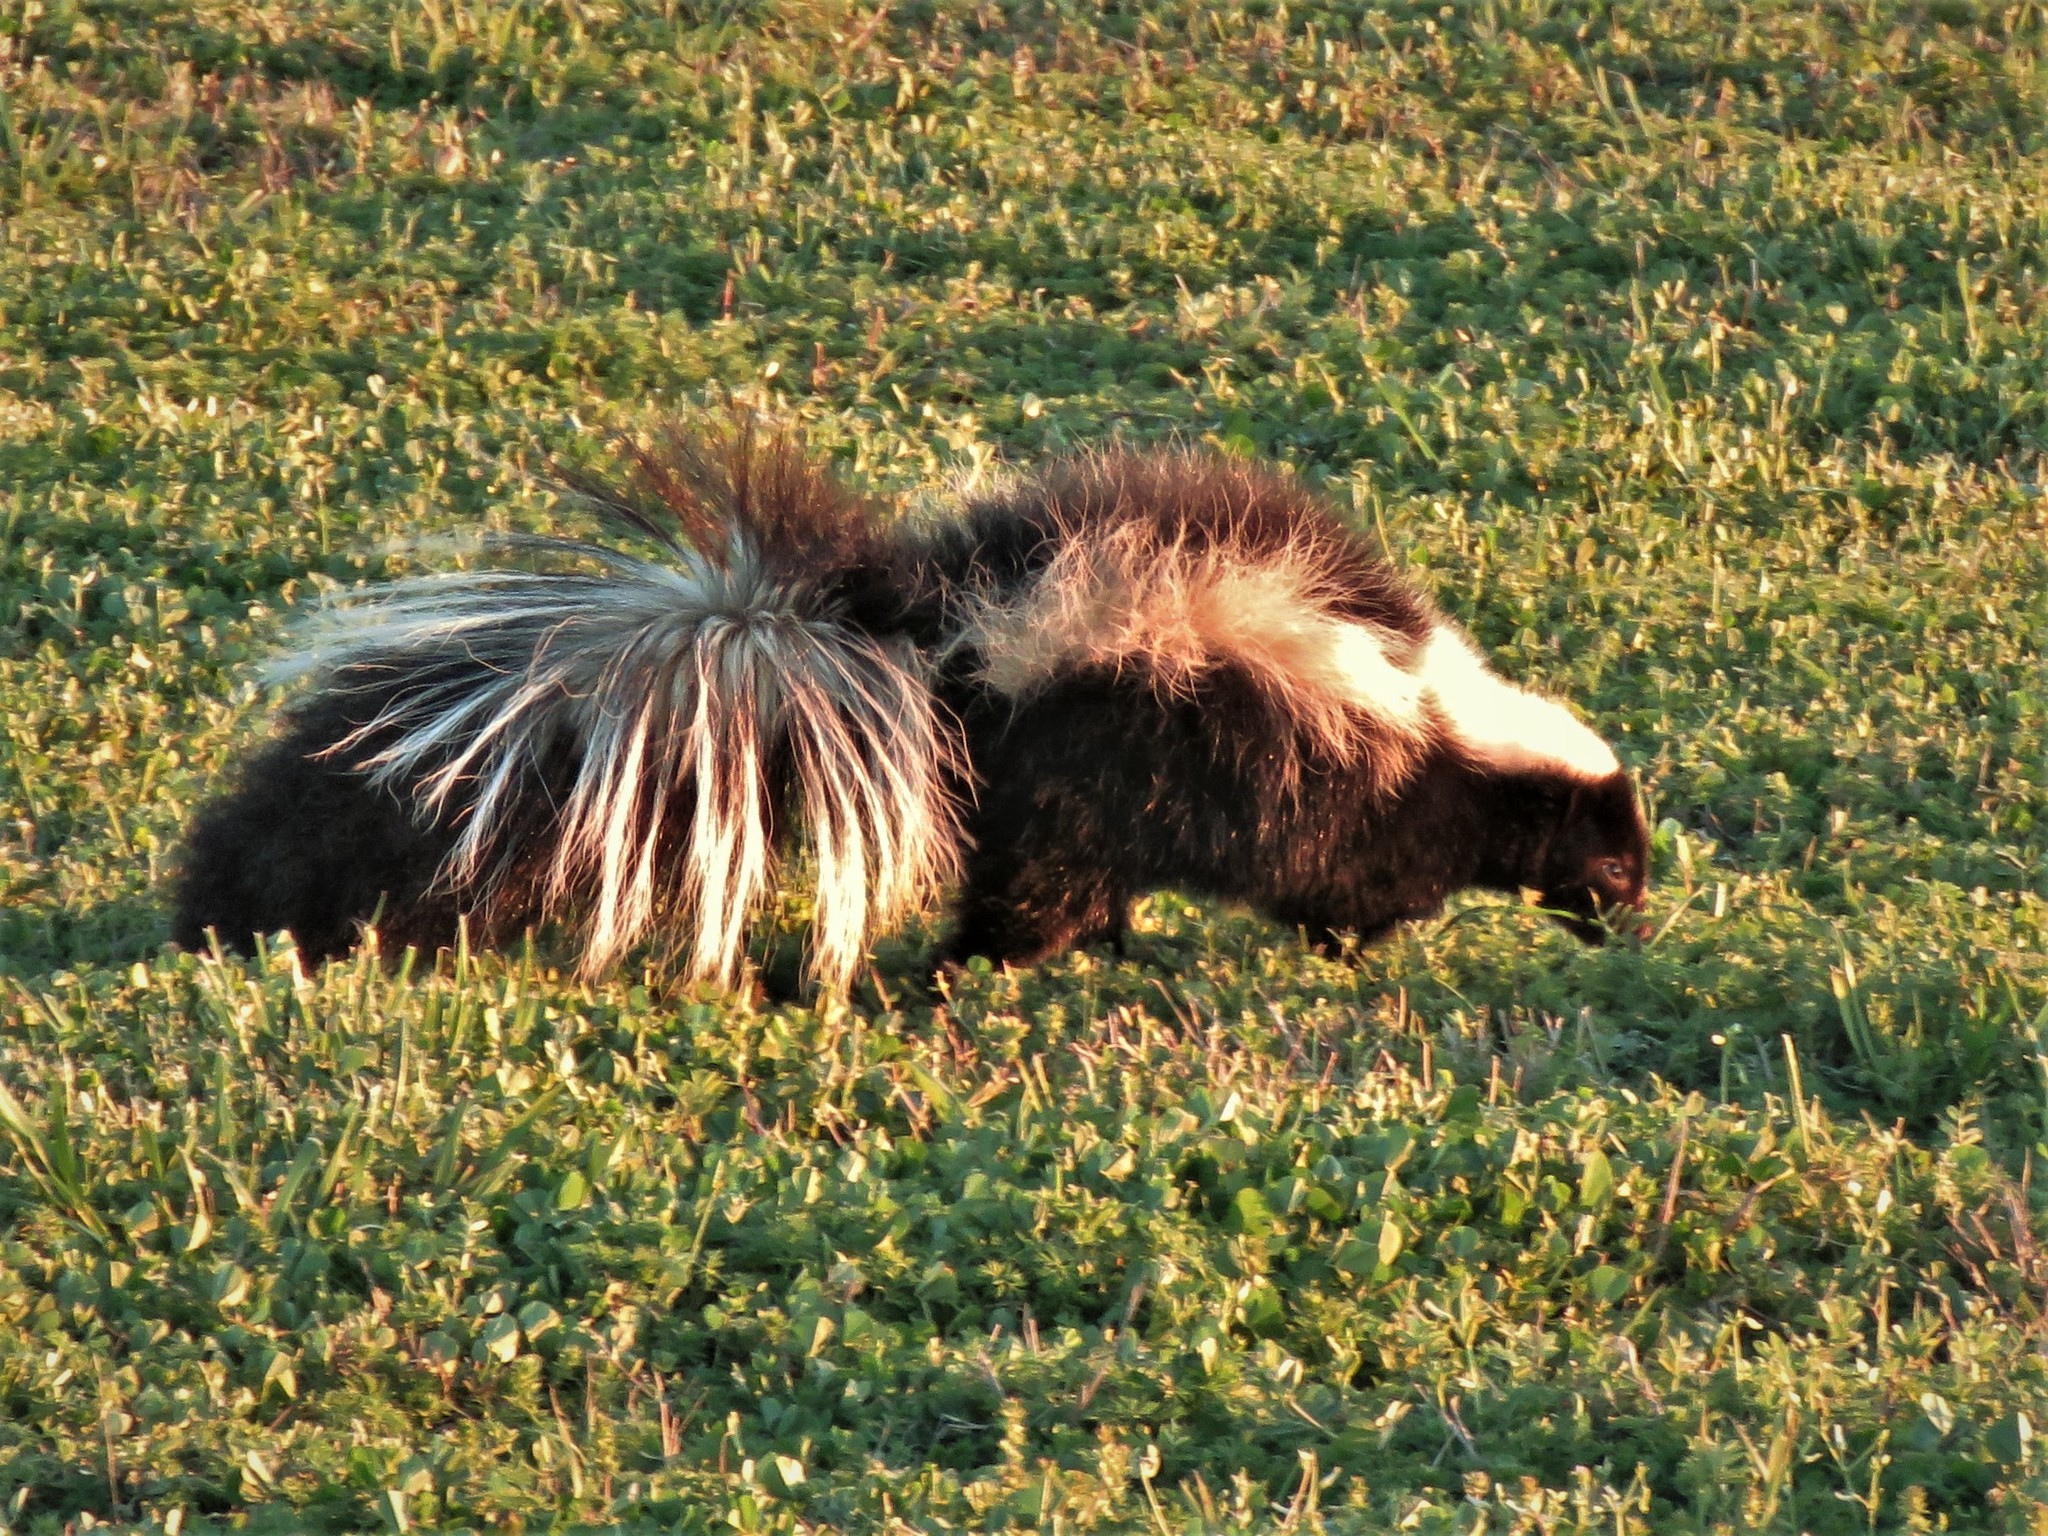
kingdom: Animalia
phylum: Chordata
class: Mammalia
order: Carnivora
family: Mephitidae
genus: Mephitis
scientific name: Mephitis mephitis
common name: Striped skunk
